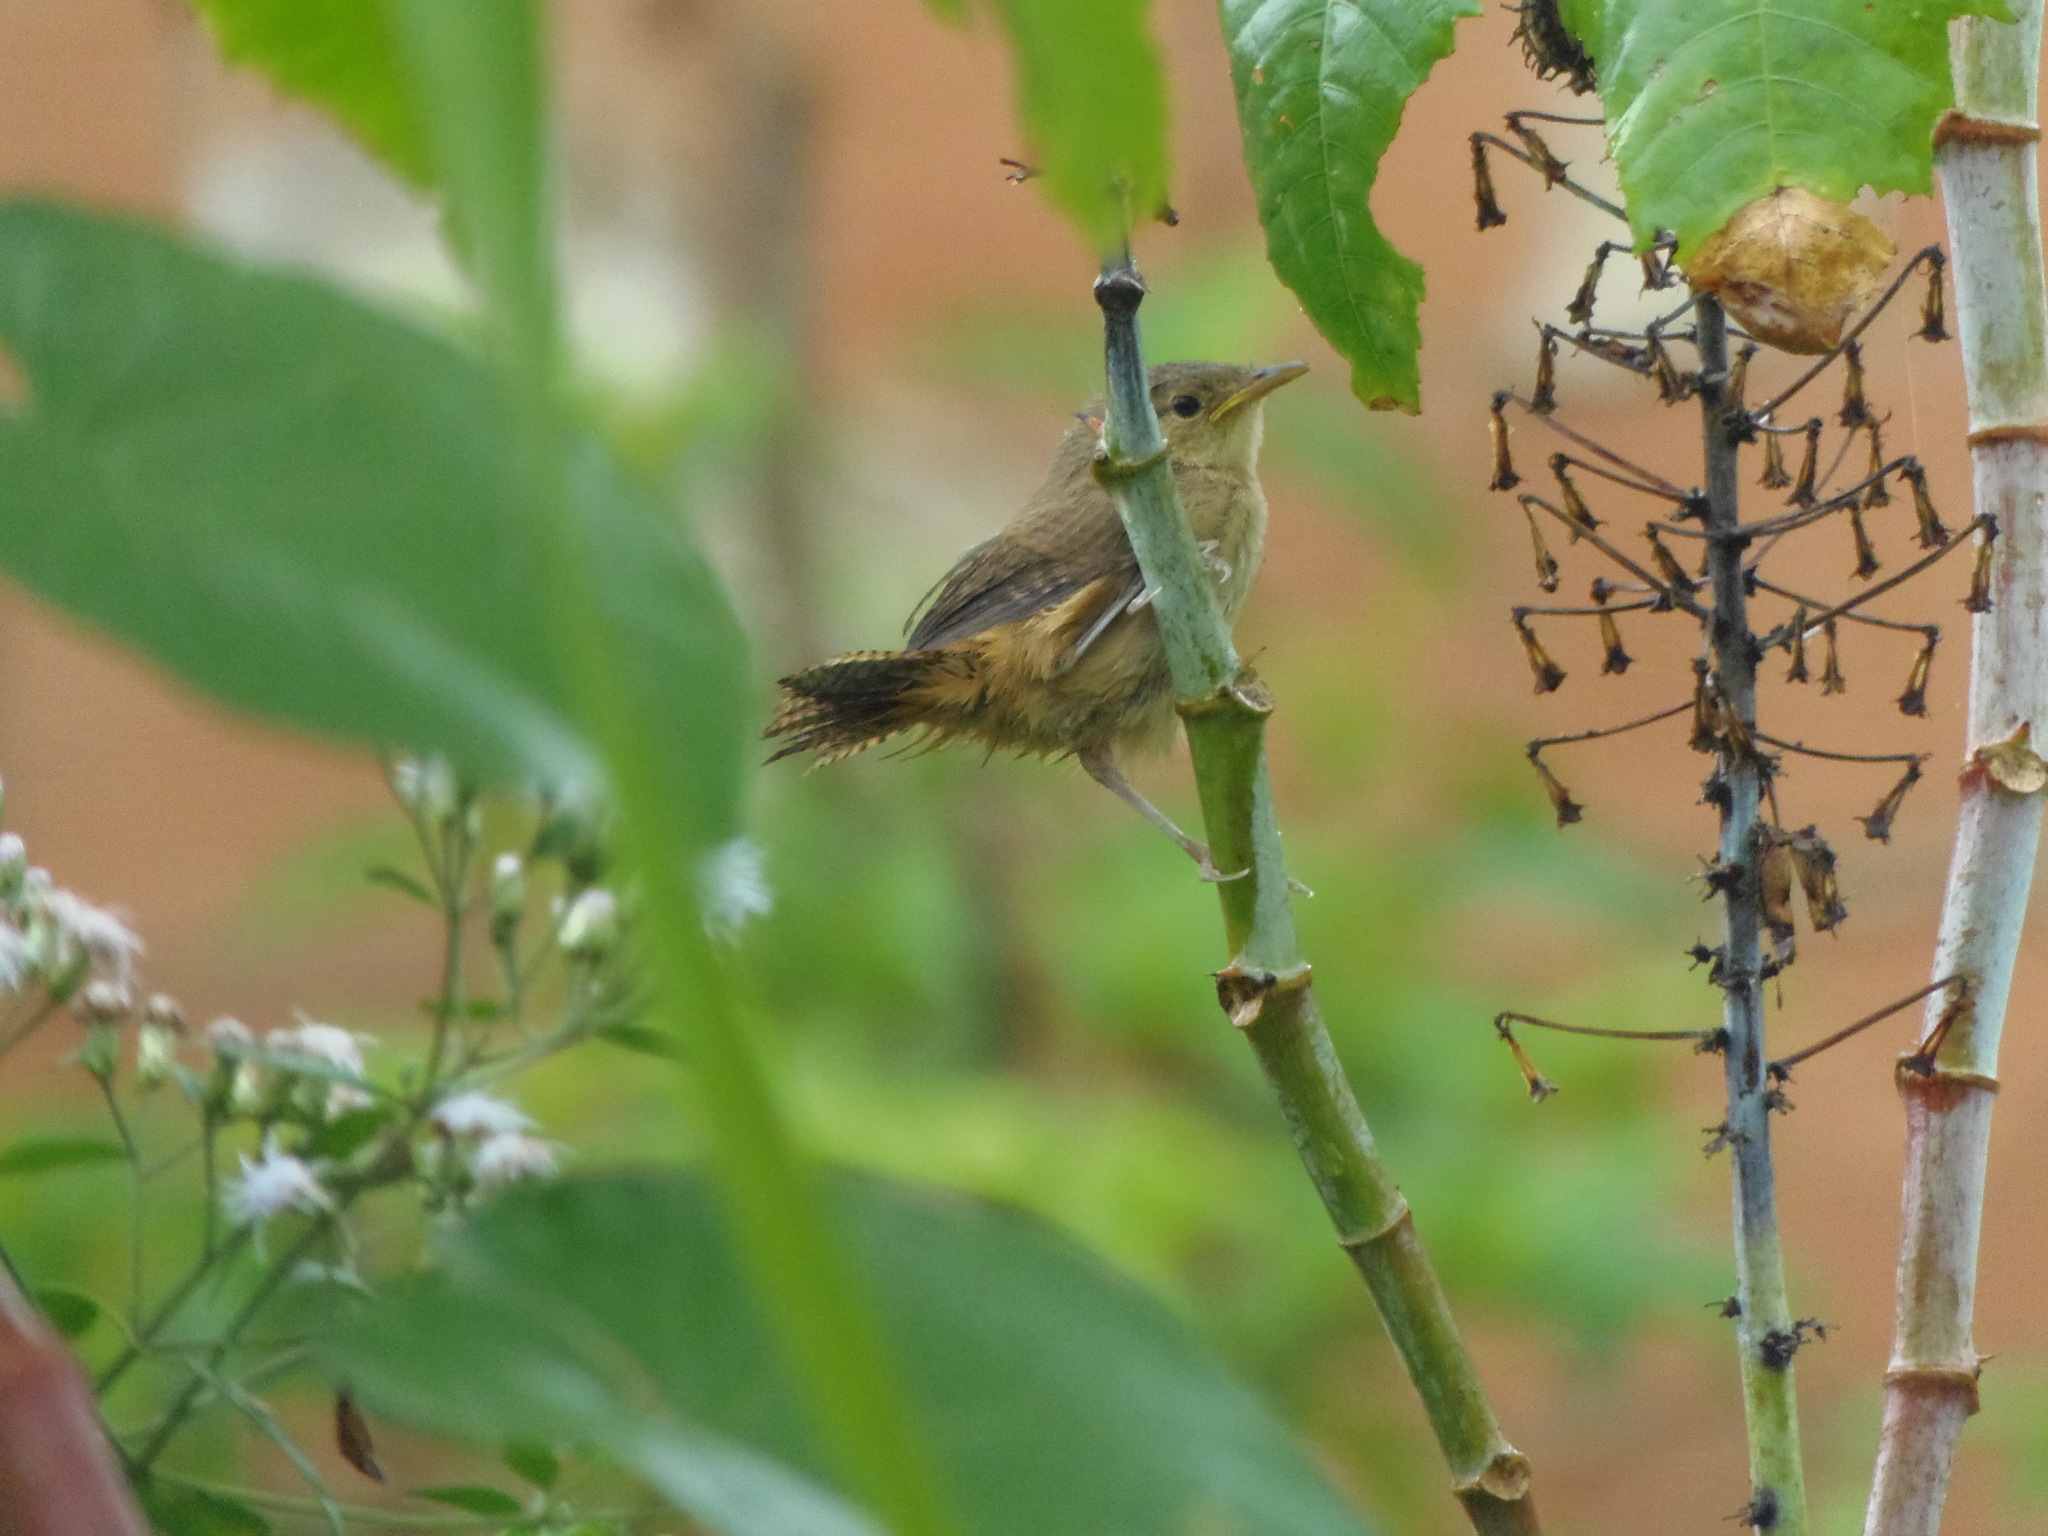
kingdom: Animalia
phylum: Chordata
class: Aves
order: Passeriformes
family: Troglodytidae
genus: Troglodytes
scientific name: Troglodytes aedon
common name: House wren
